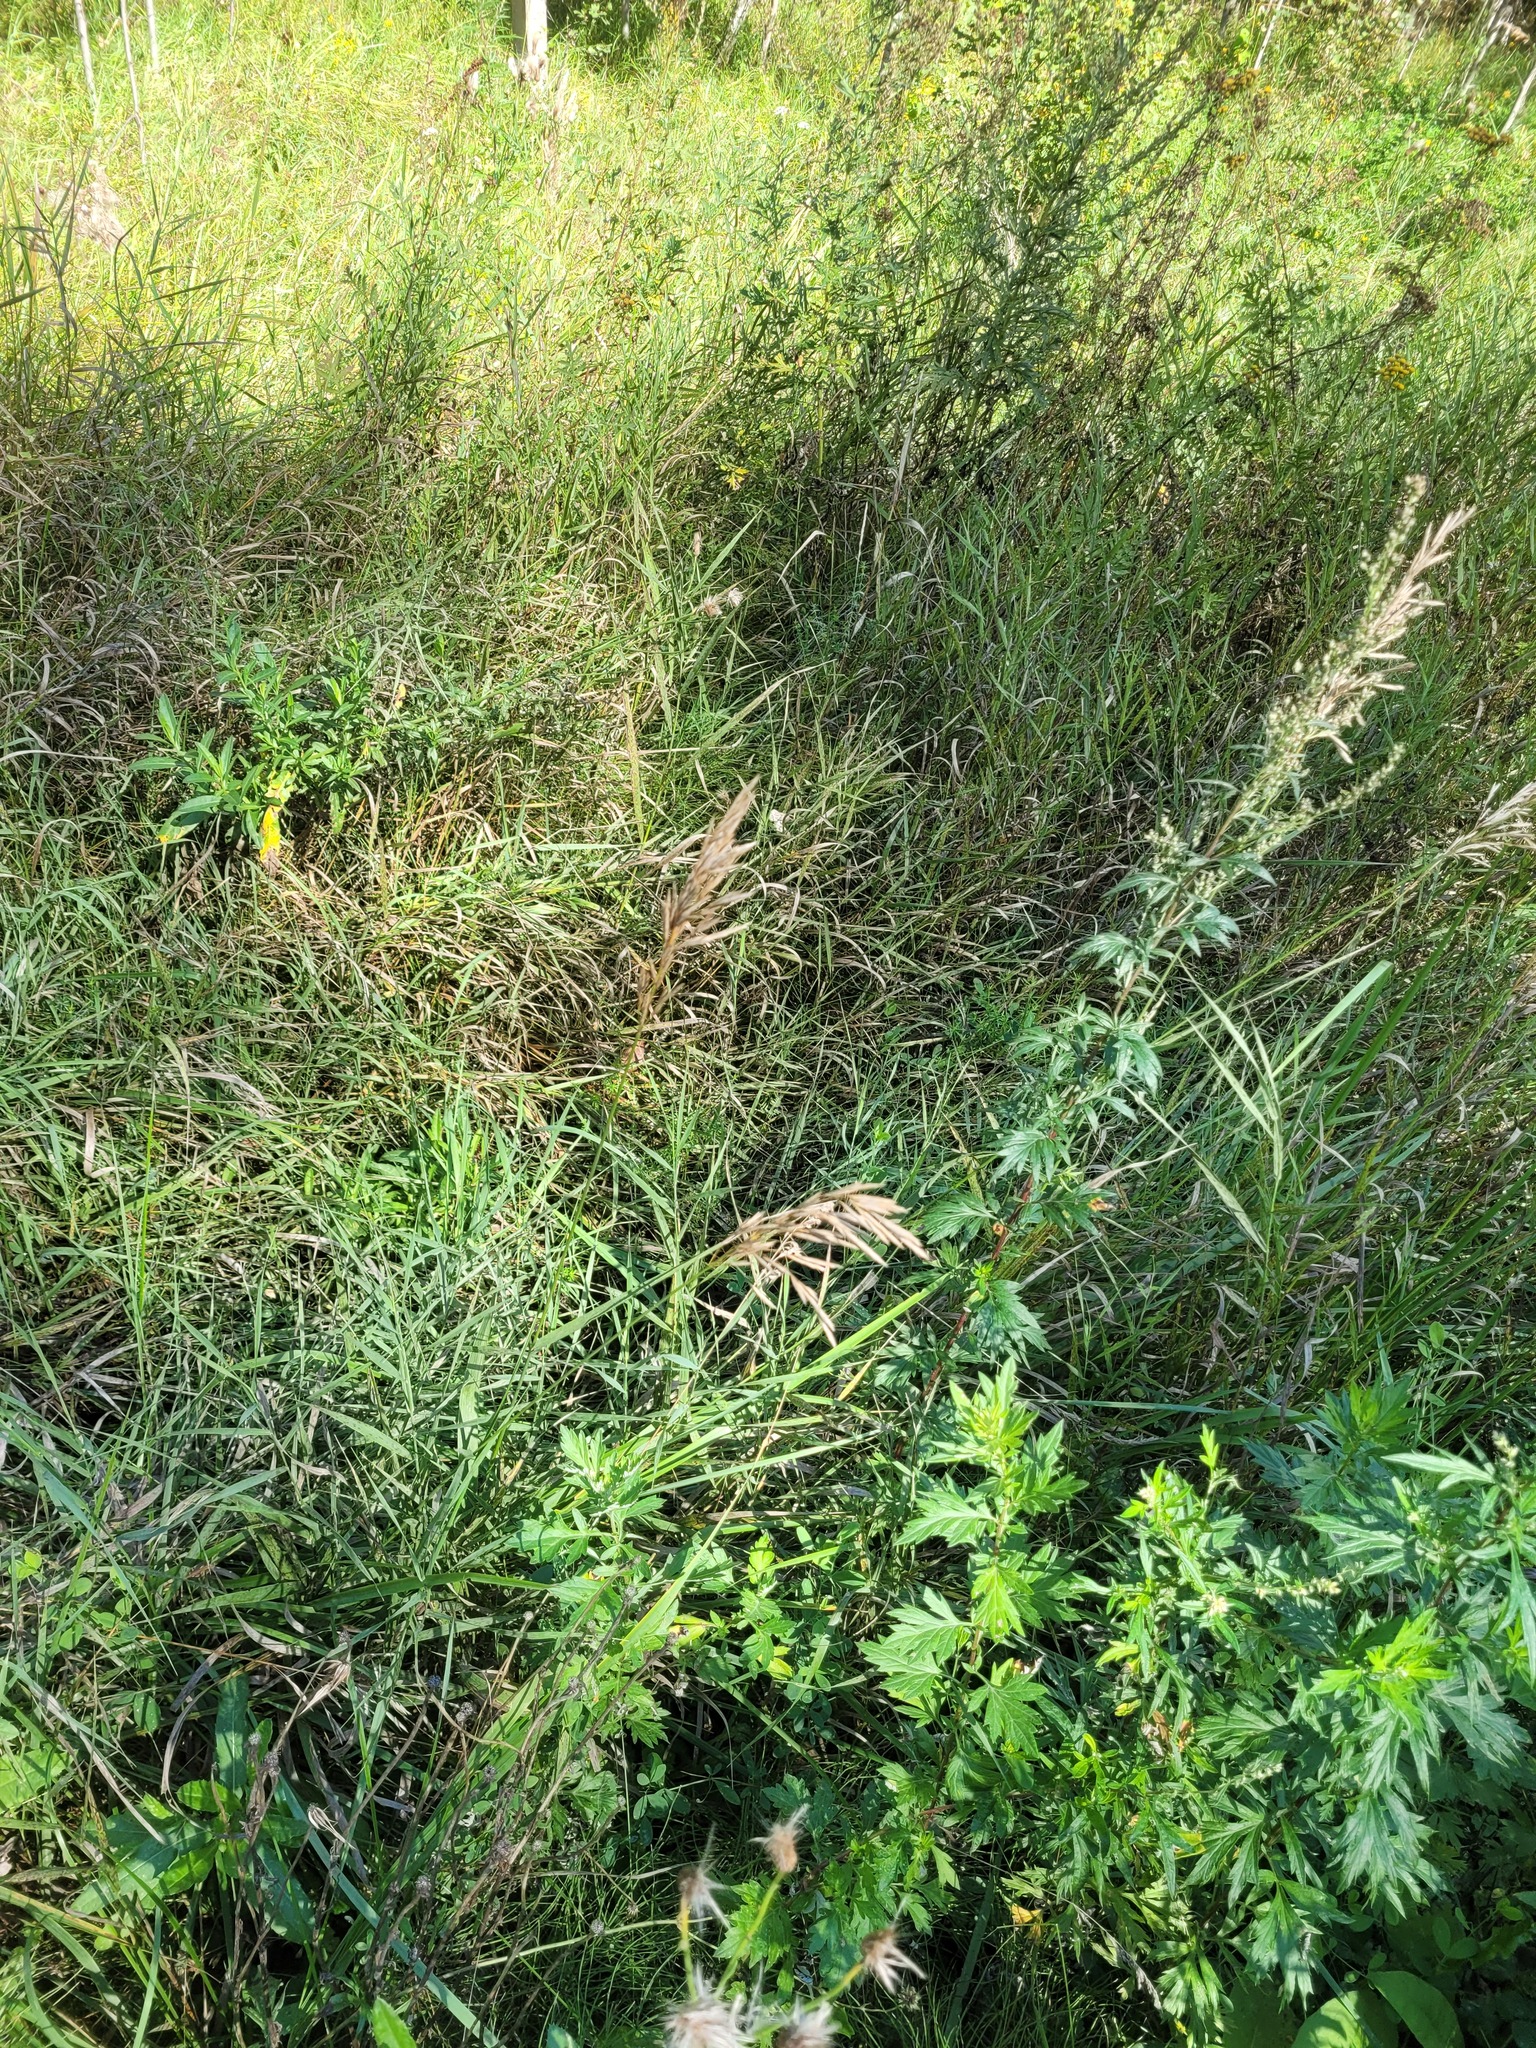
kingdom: Plantae
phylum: Tracheophyta
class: Liliopsida
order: Poales
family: Poaceae
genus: Bromus
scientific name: Bromus inermis
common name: Smooth brome
